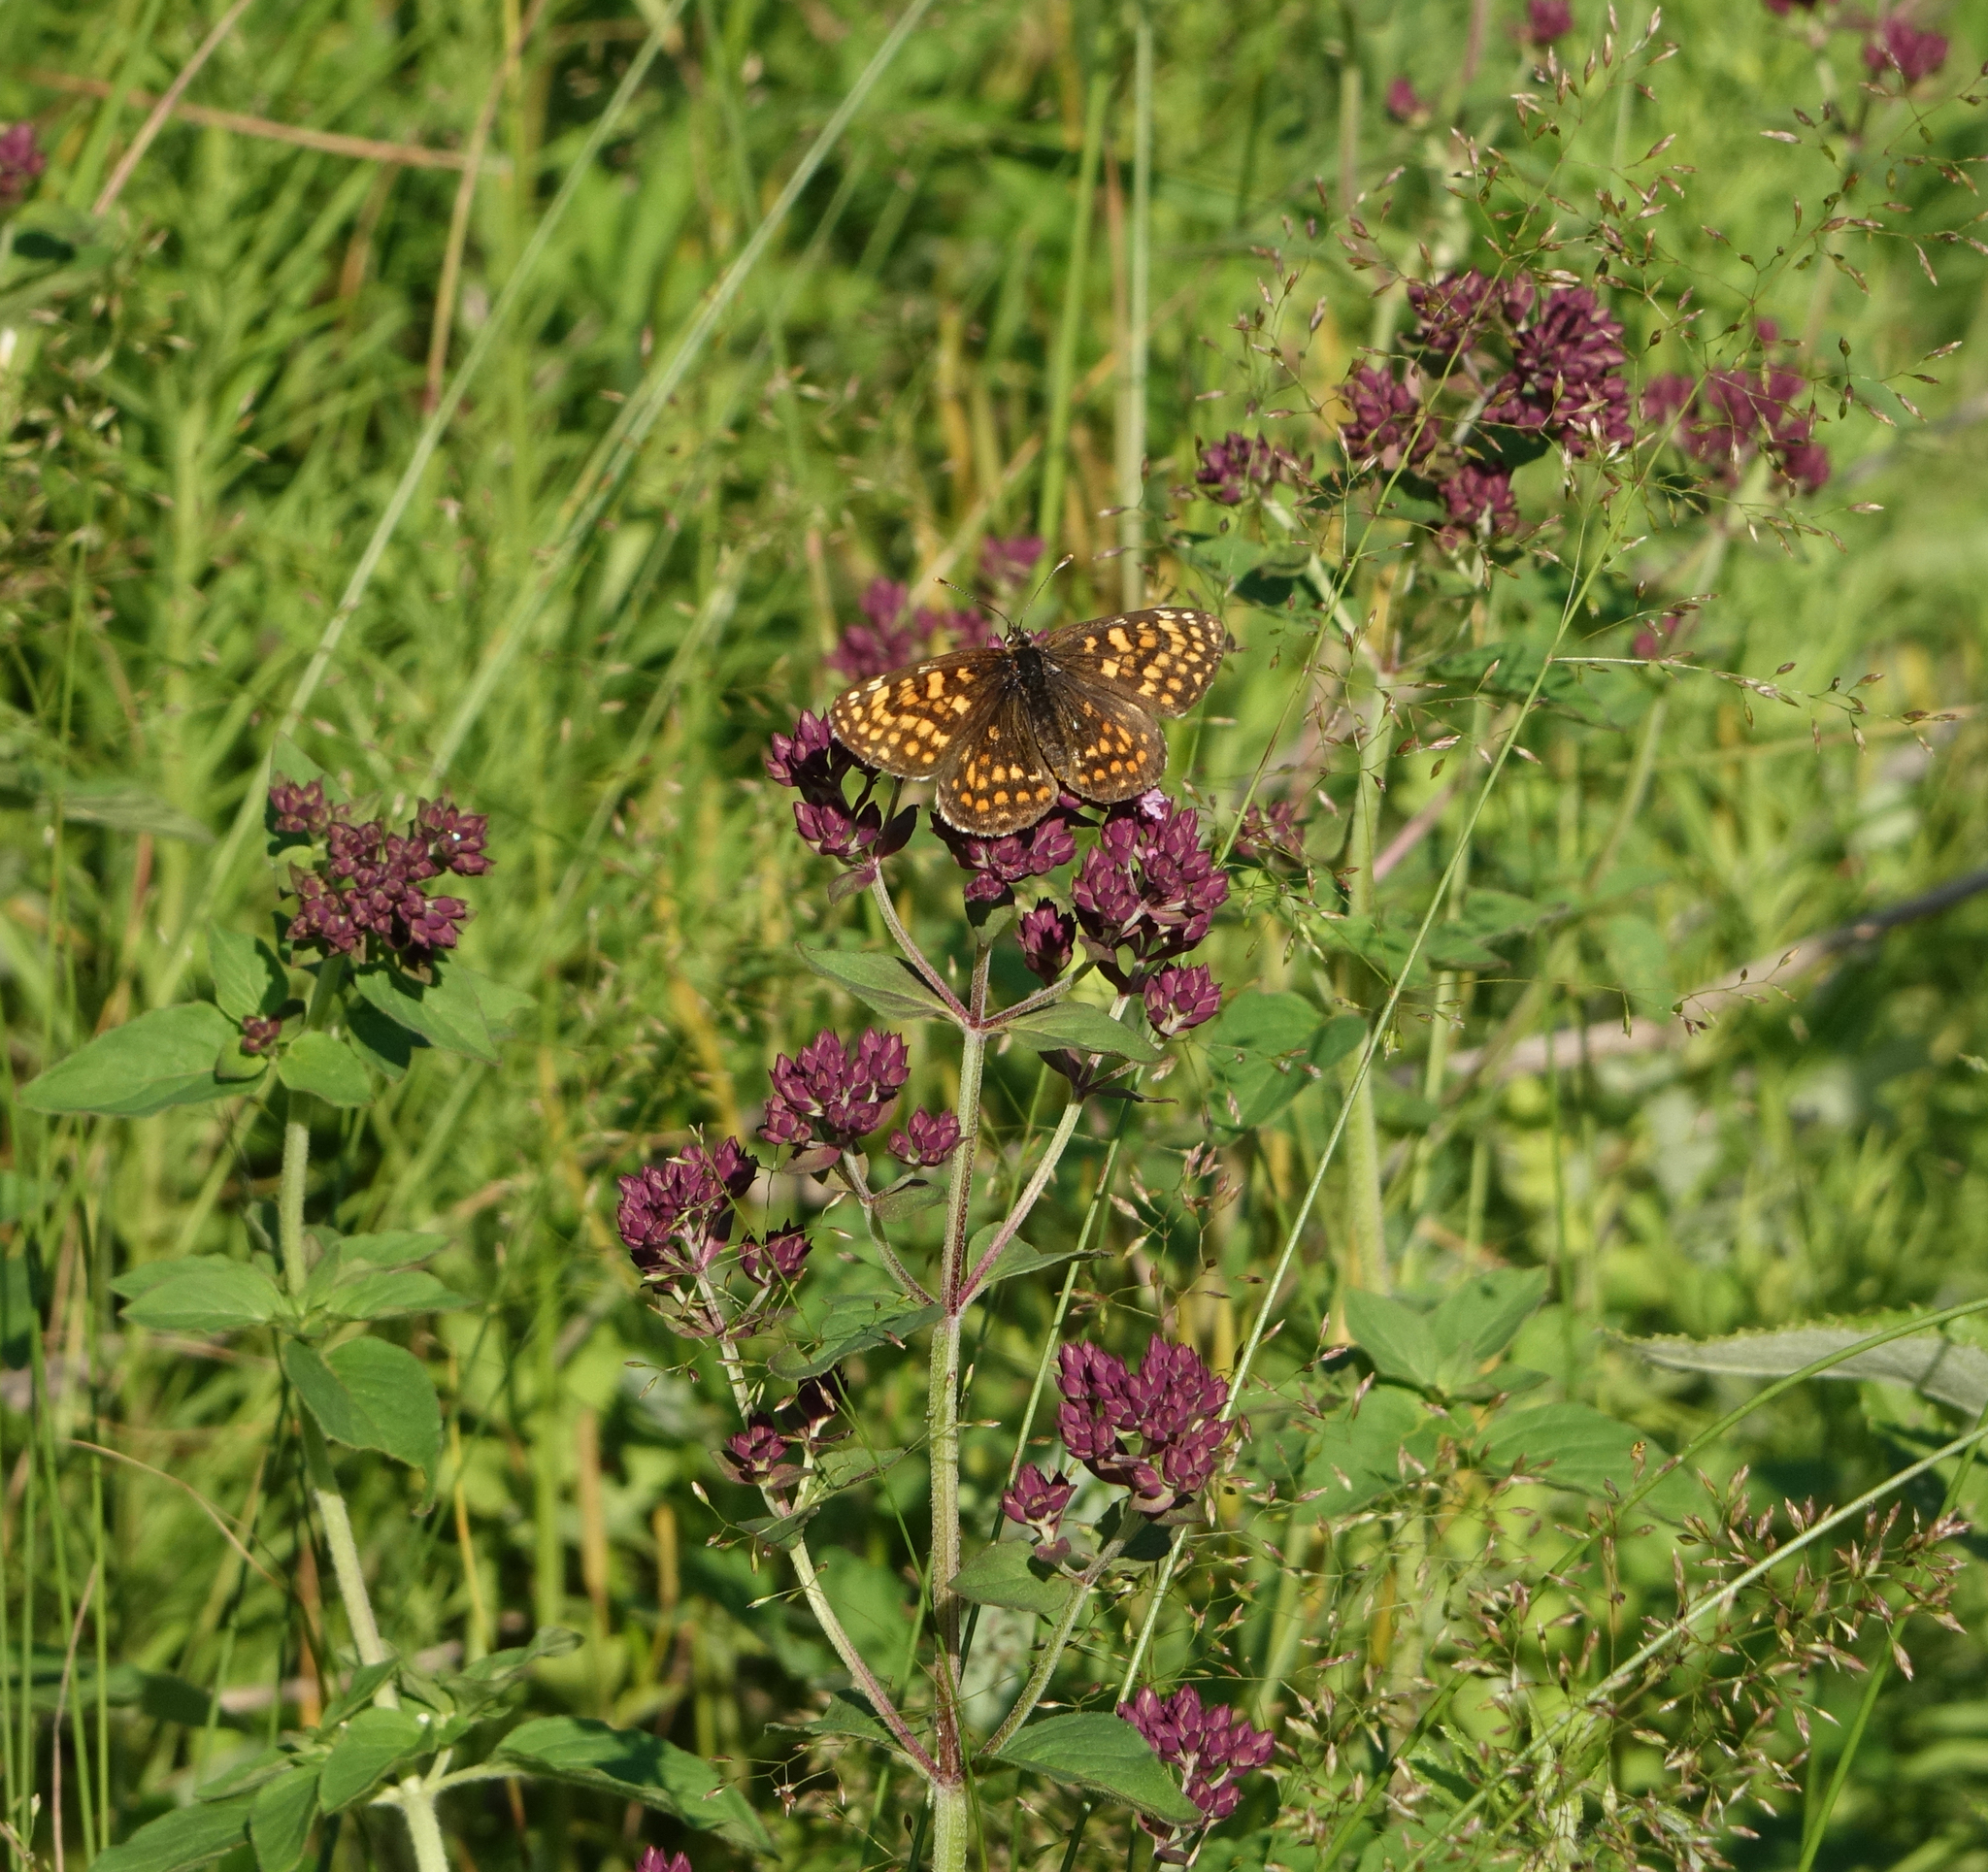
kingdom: Plantae
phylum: Tracheophyta
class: Magnoliopsida
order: Lamiales
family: Lamiaceae
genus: Origanum
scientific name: Origanum vulgare
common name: Wild marjoram
